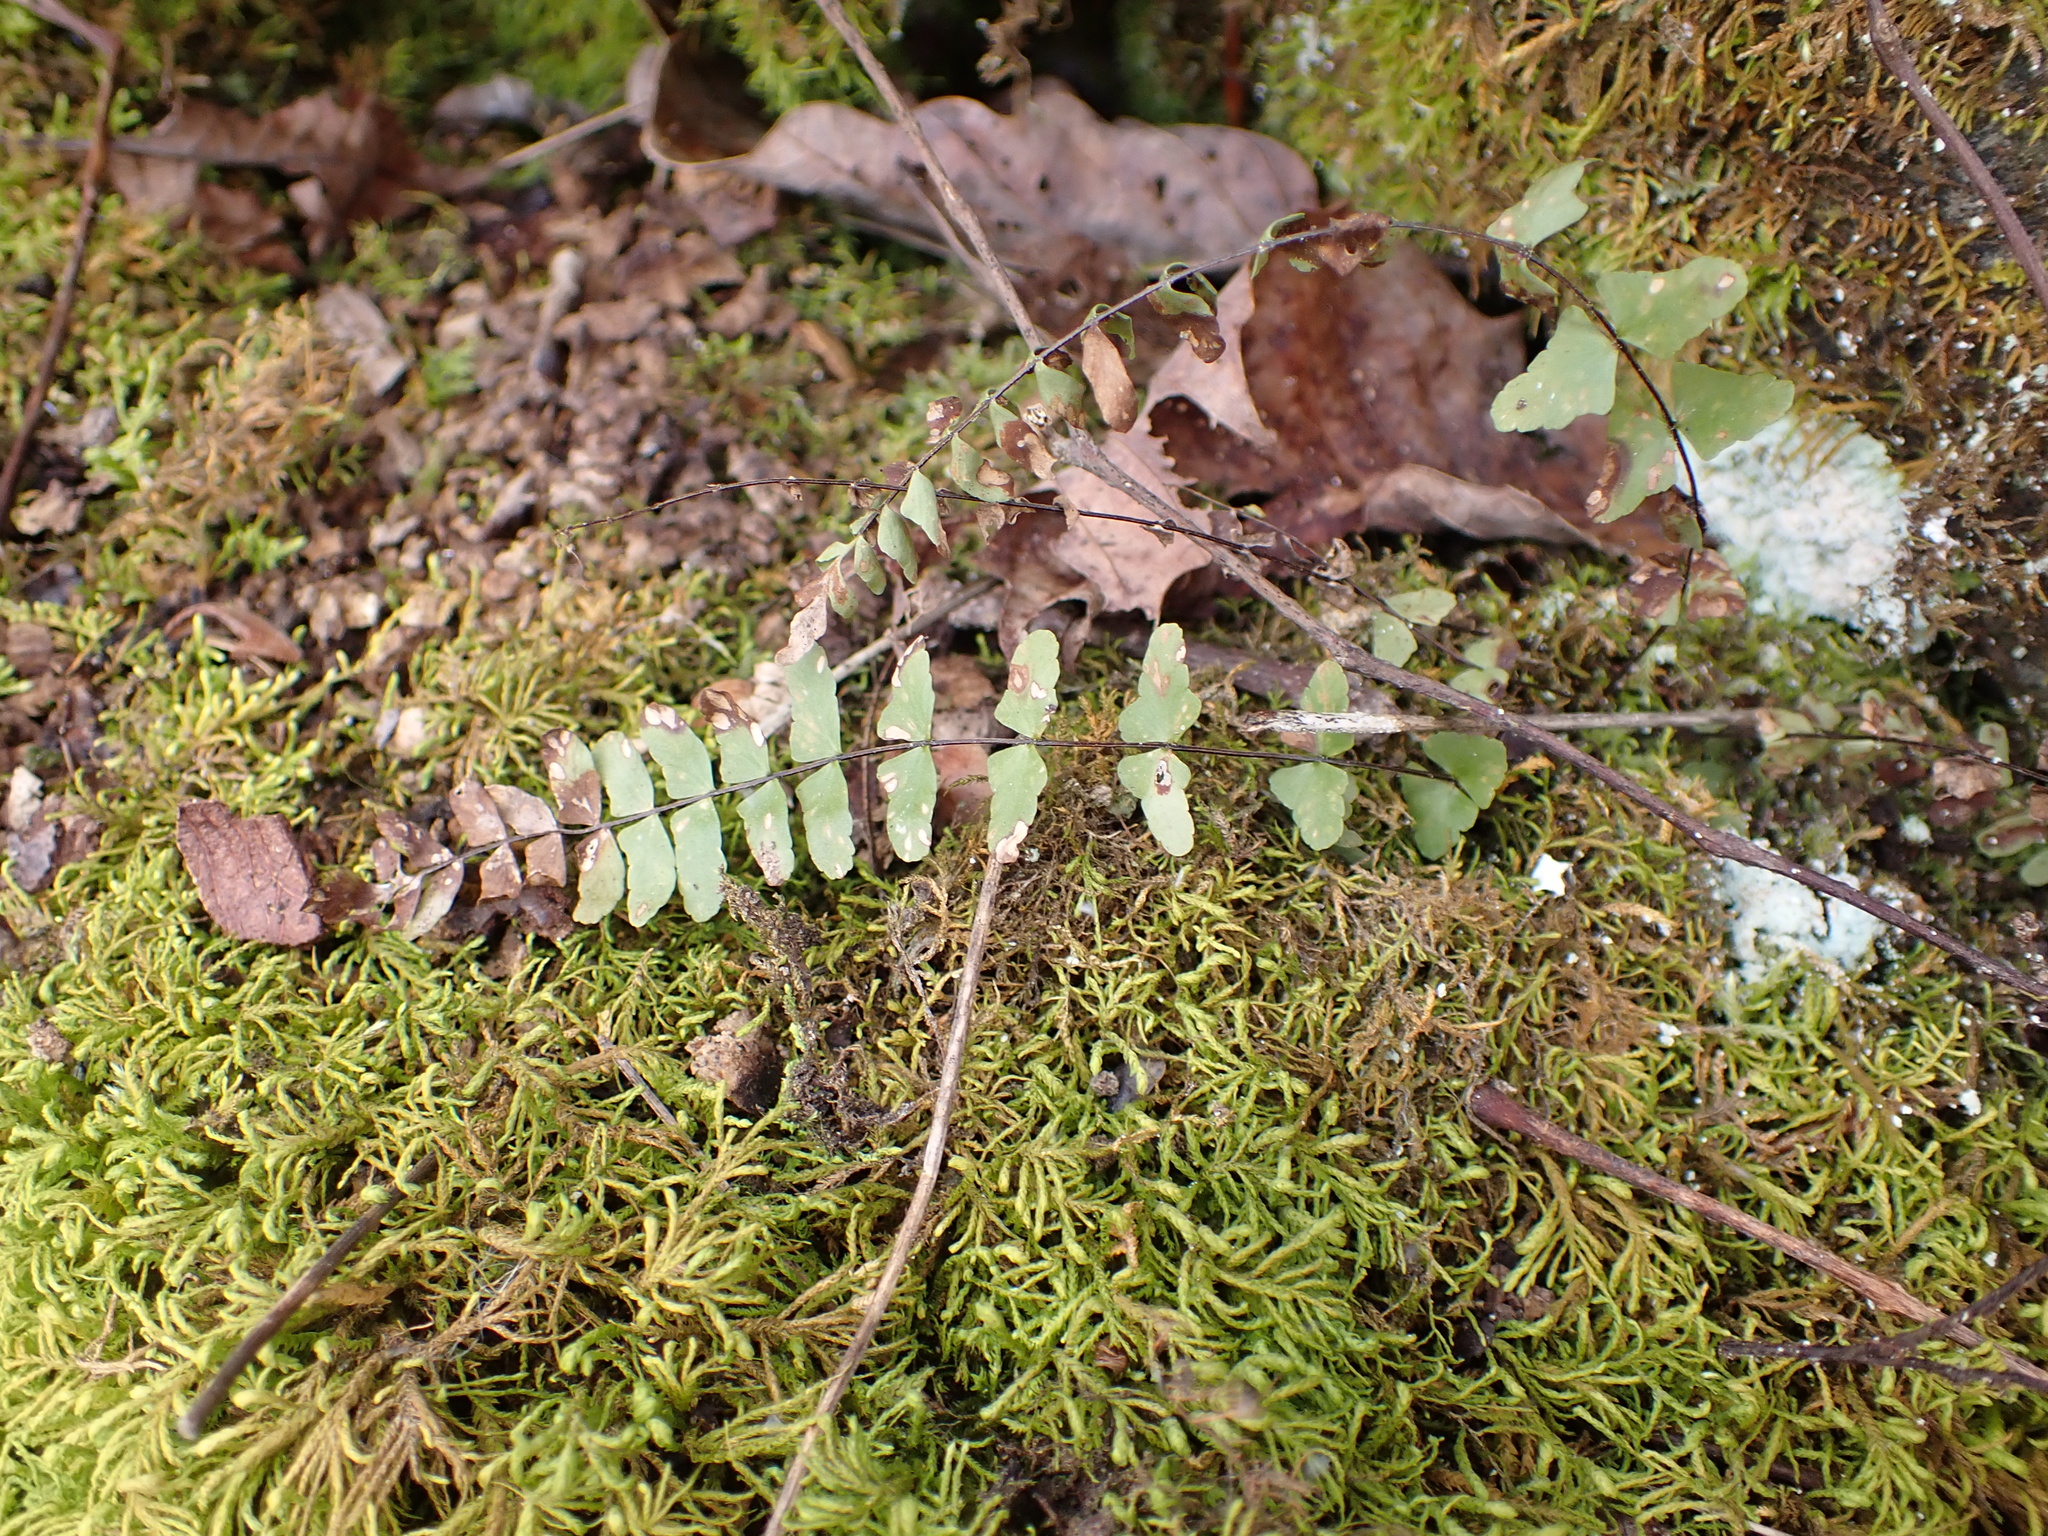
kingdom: Plantae
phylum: Tracheophyta
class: Polypodiopsida
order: Polypodiales
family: Aspleniaceae
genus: Asplenium
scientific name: Asplenium resiliens
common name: Blackstem spleenwort
